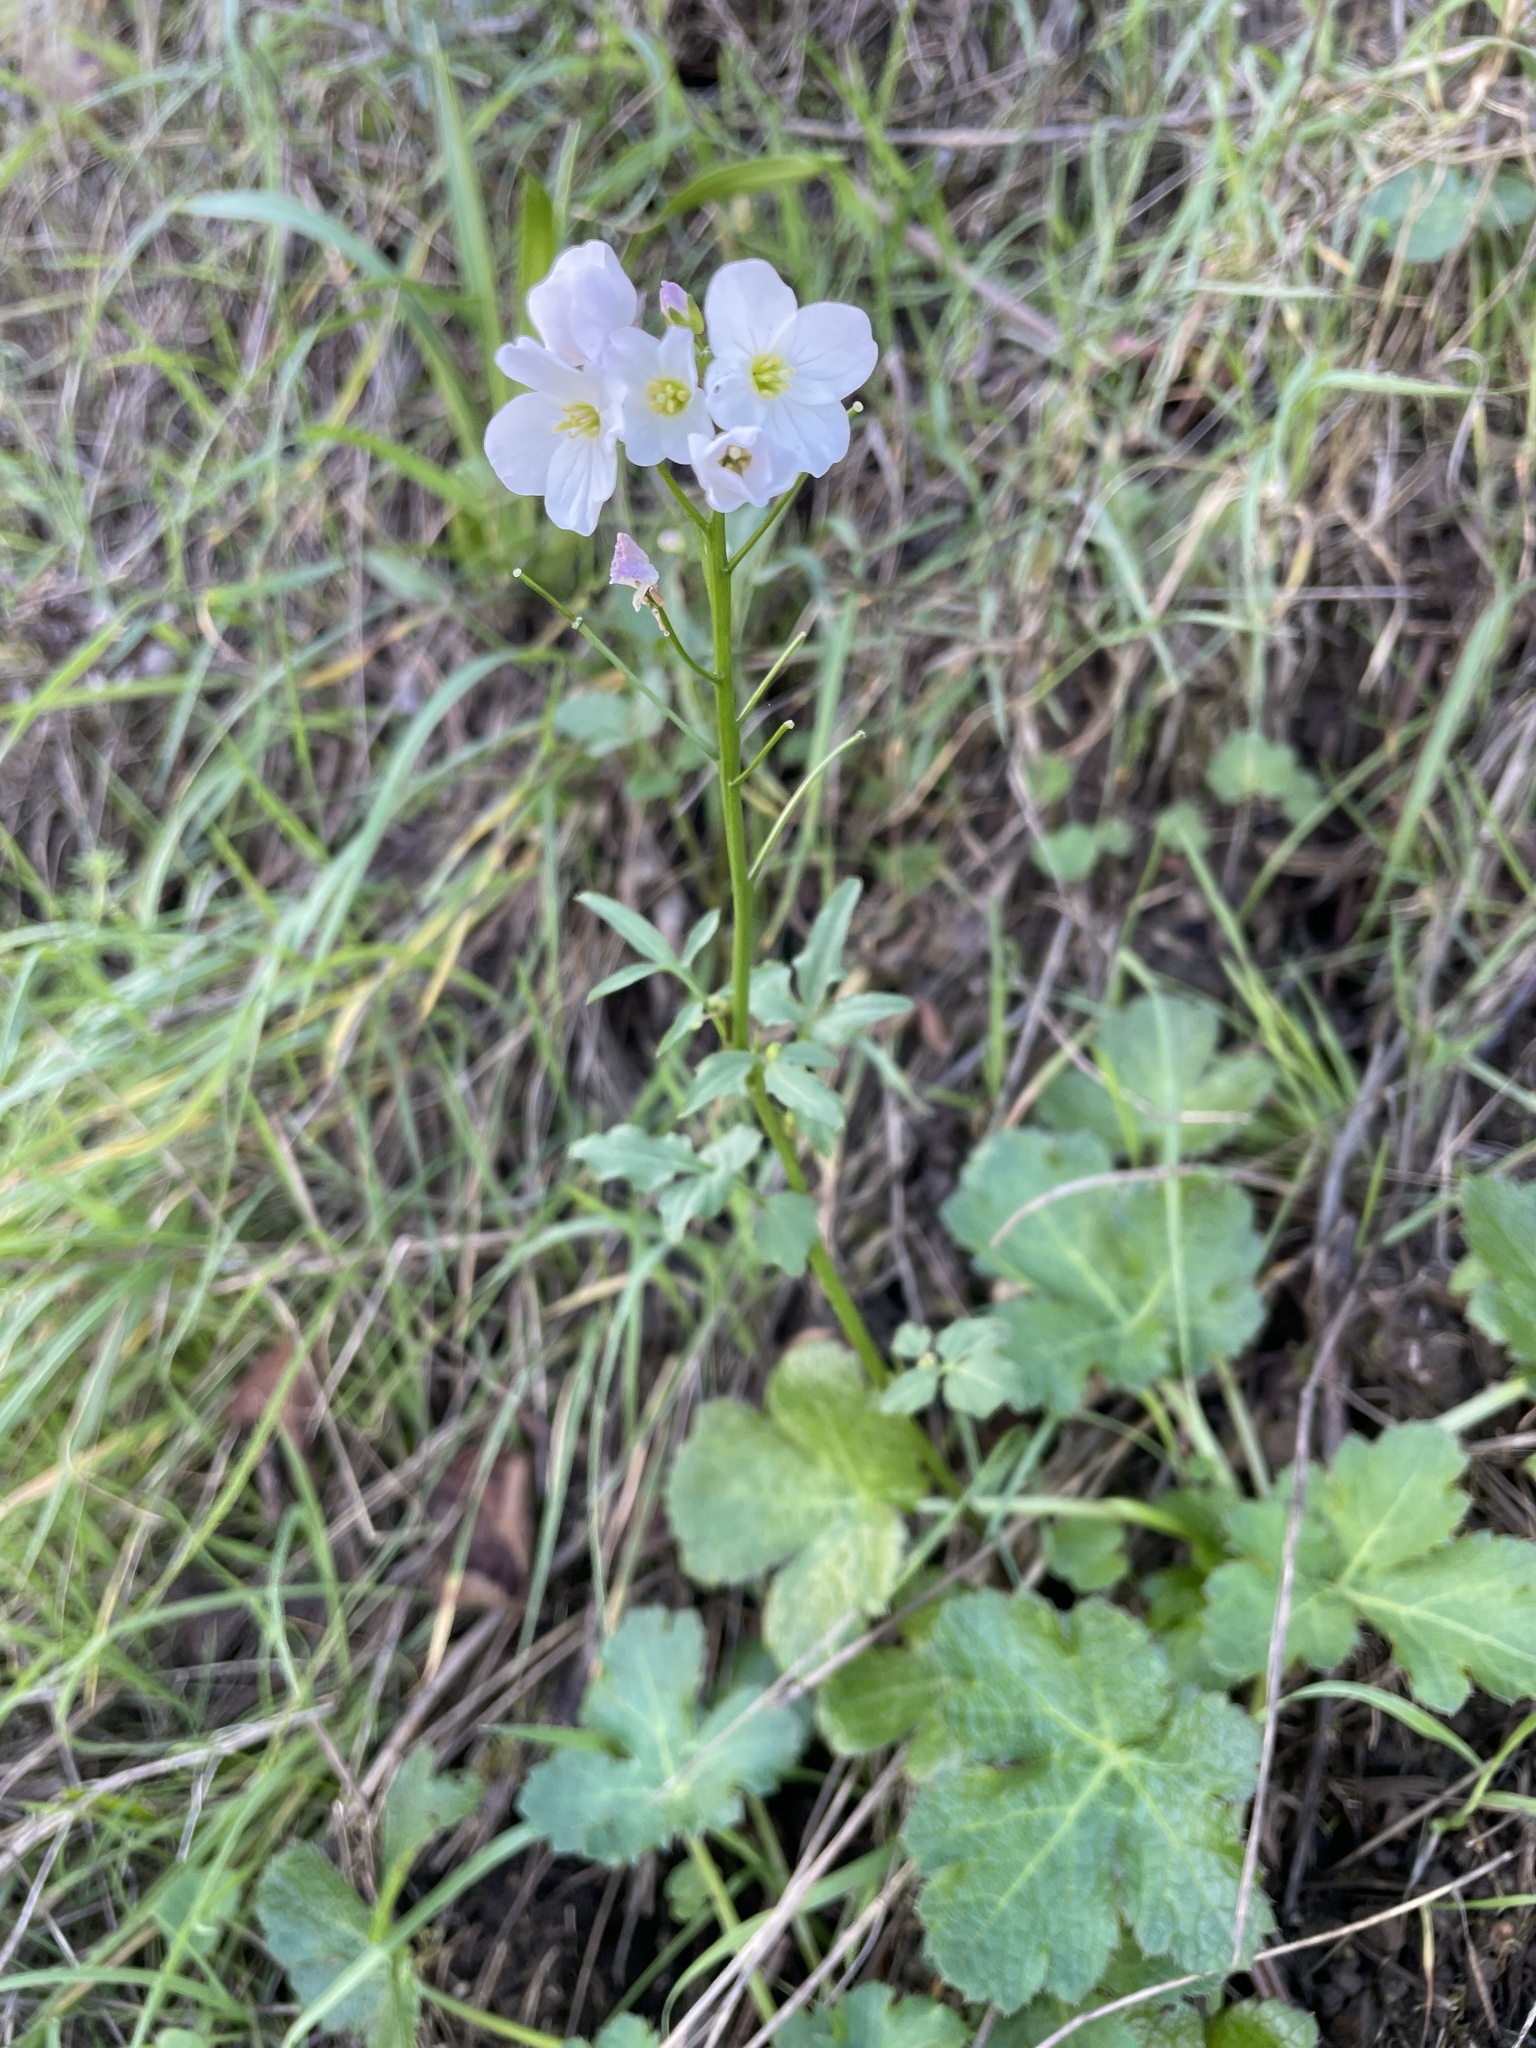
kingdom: Plantae
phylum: Tracheophyta
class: Magnoliopsida
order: Brassicales
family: Brassicaceae
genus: Cardamine
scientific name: Cardamine californica
